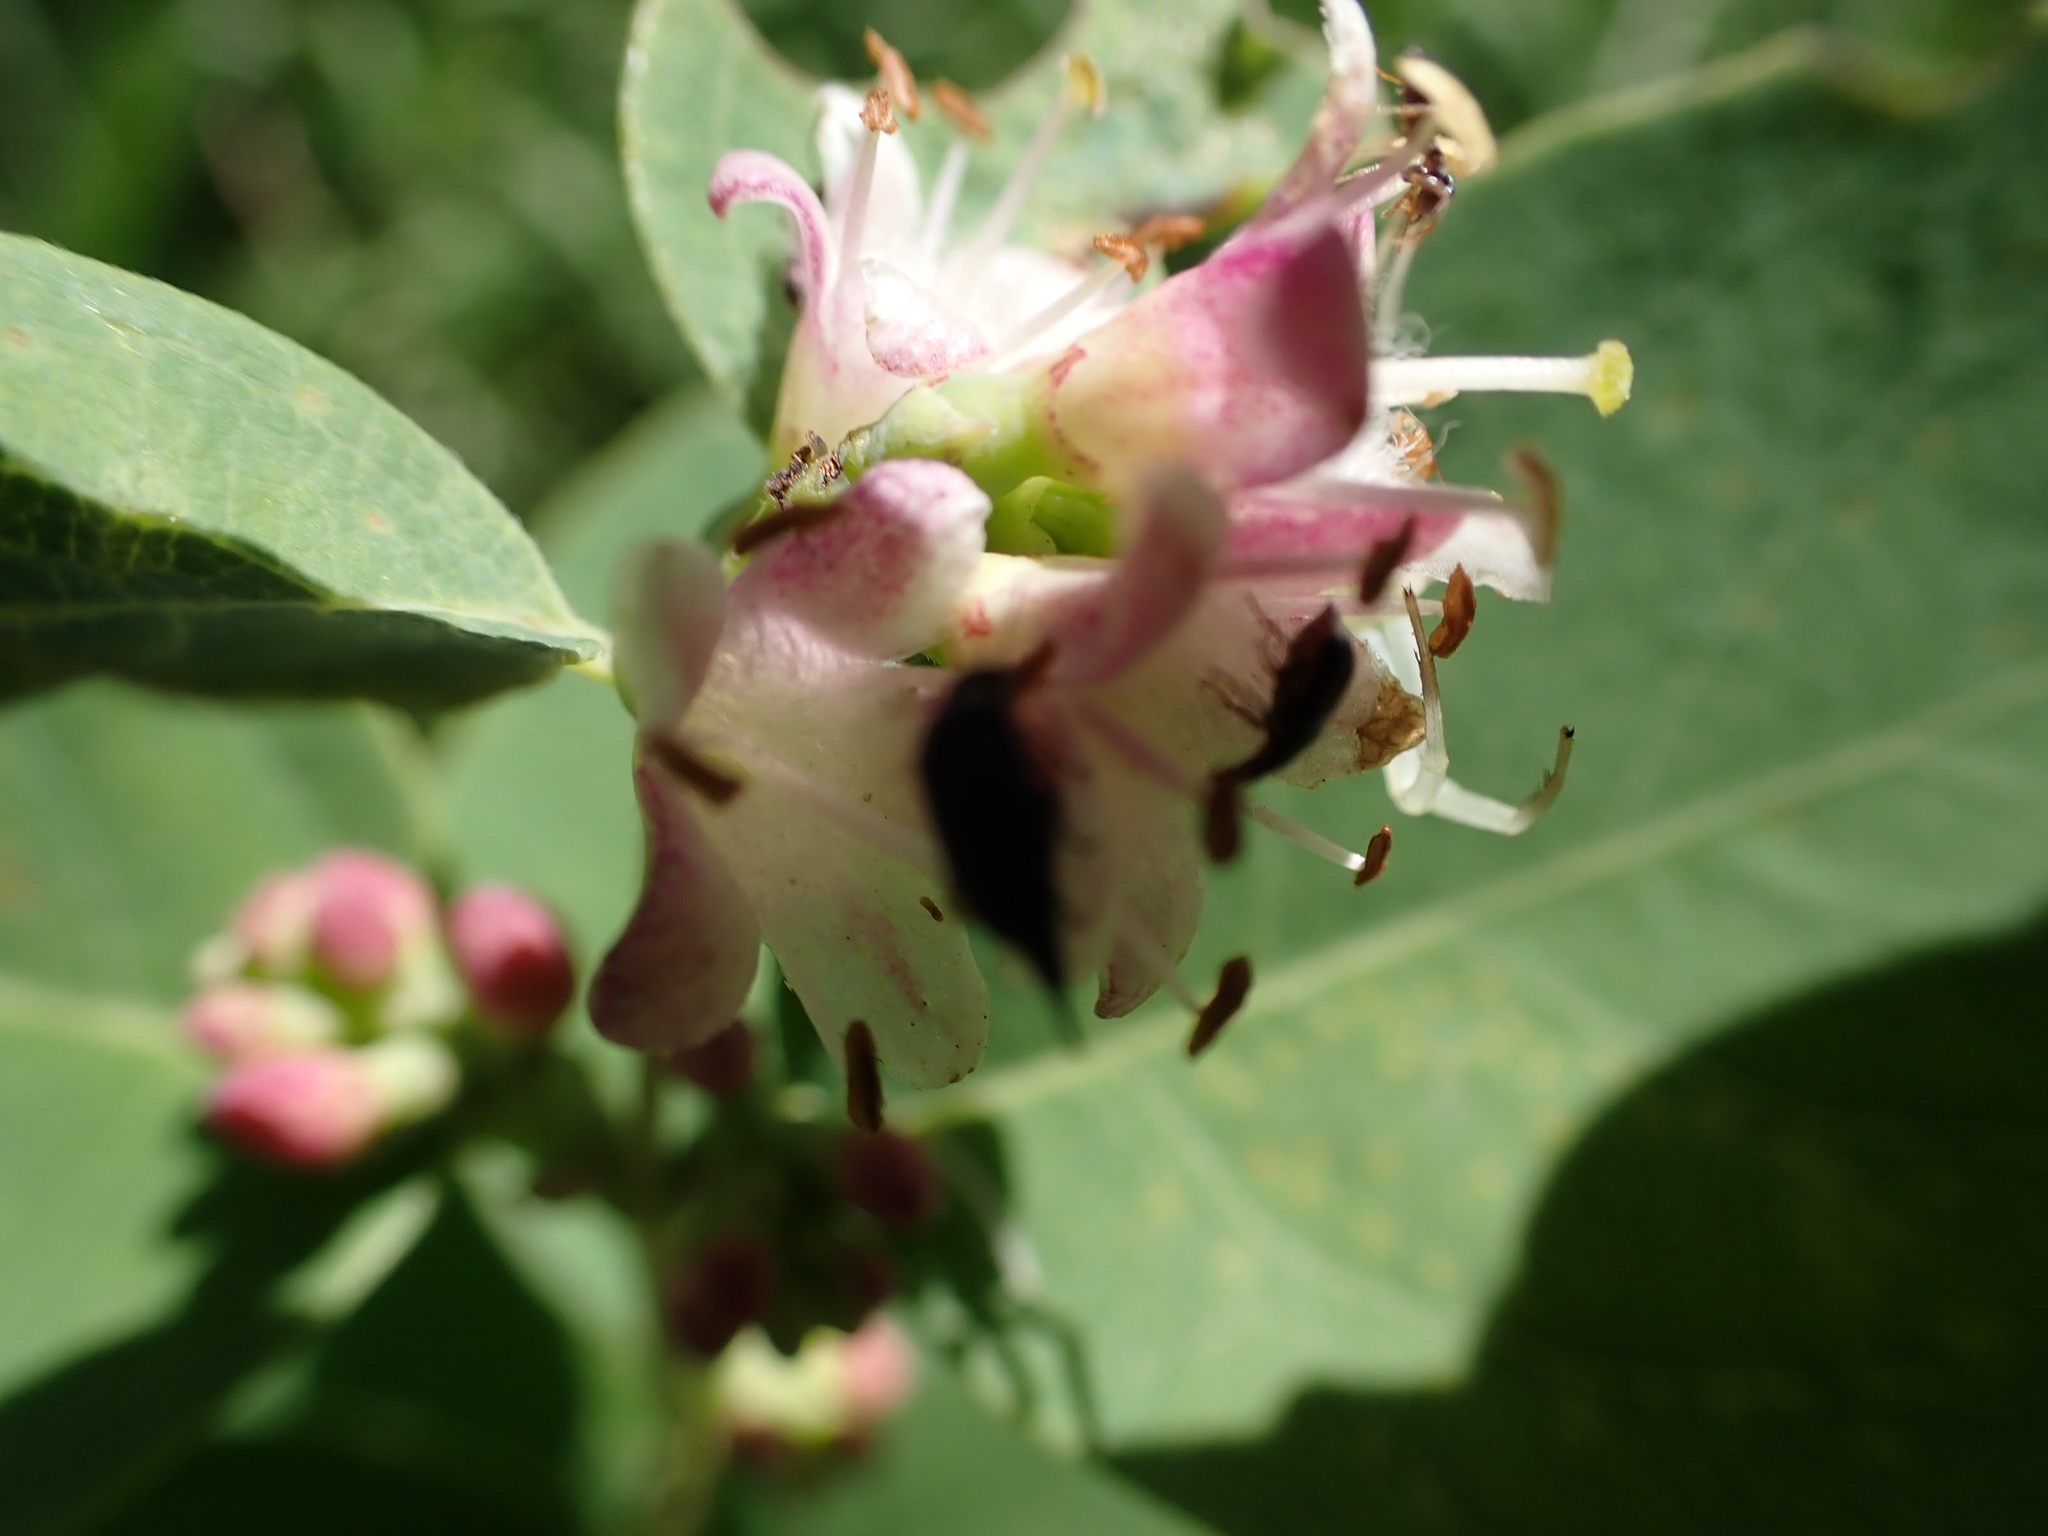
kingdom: Plantae
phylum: Tracheophyta
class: Magnoliopsida
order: Dipsacales
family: Caprifoliaceae
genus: Symphoricarpos
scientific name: Symphoricarpos occidentalis
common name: Wolfberry
